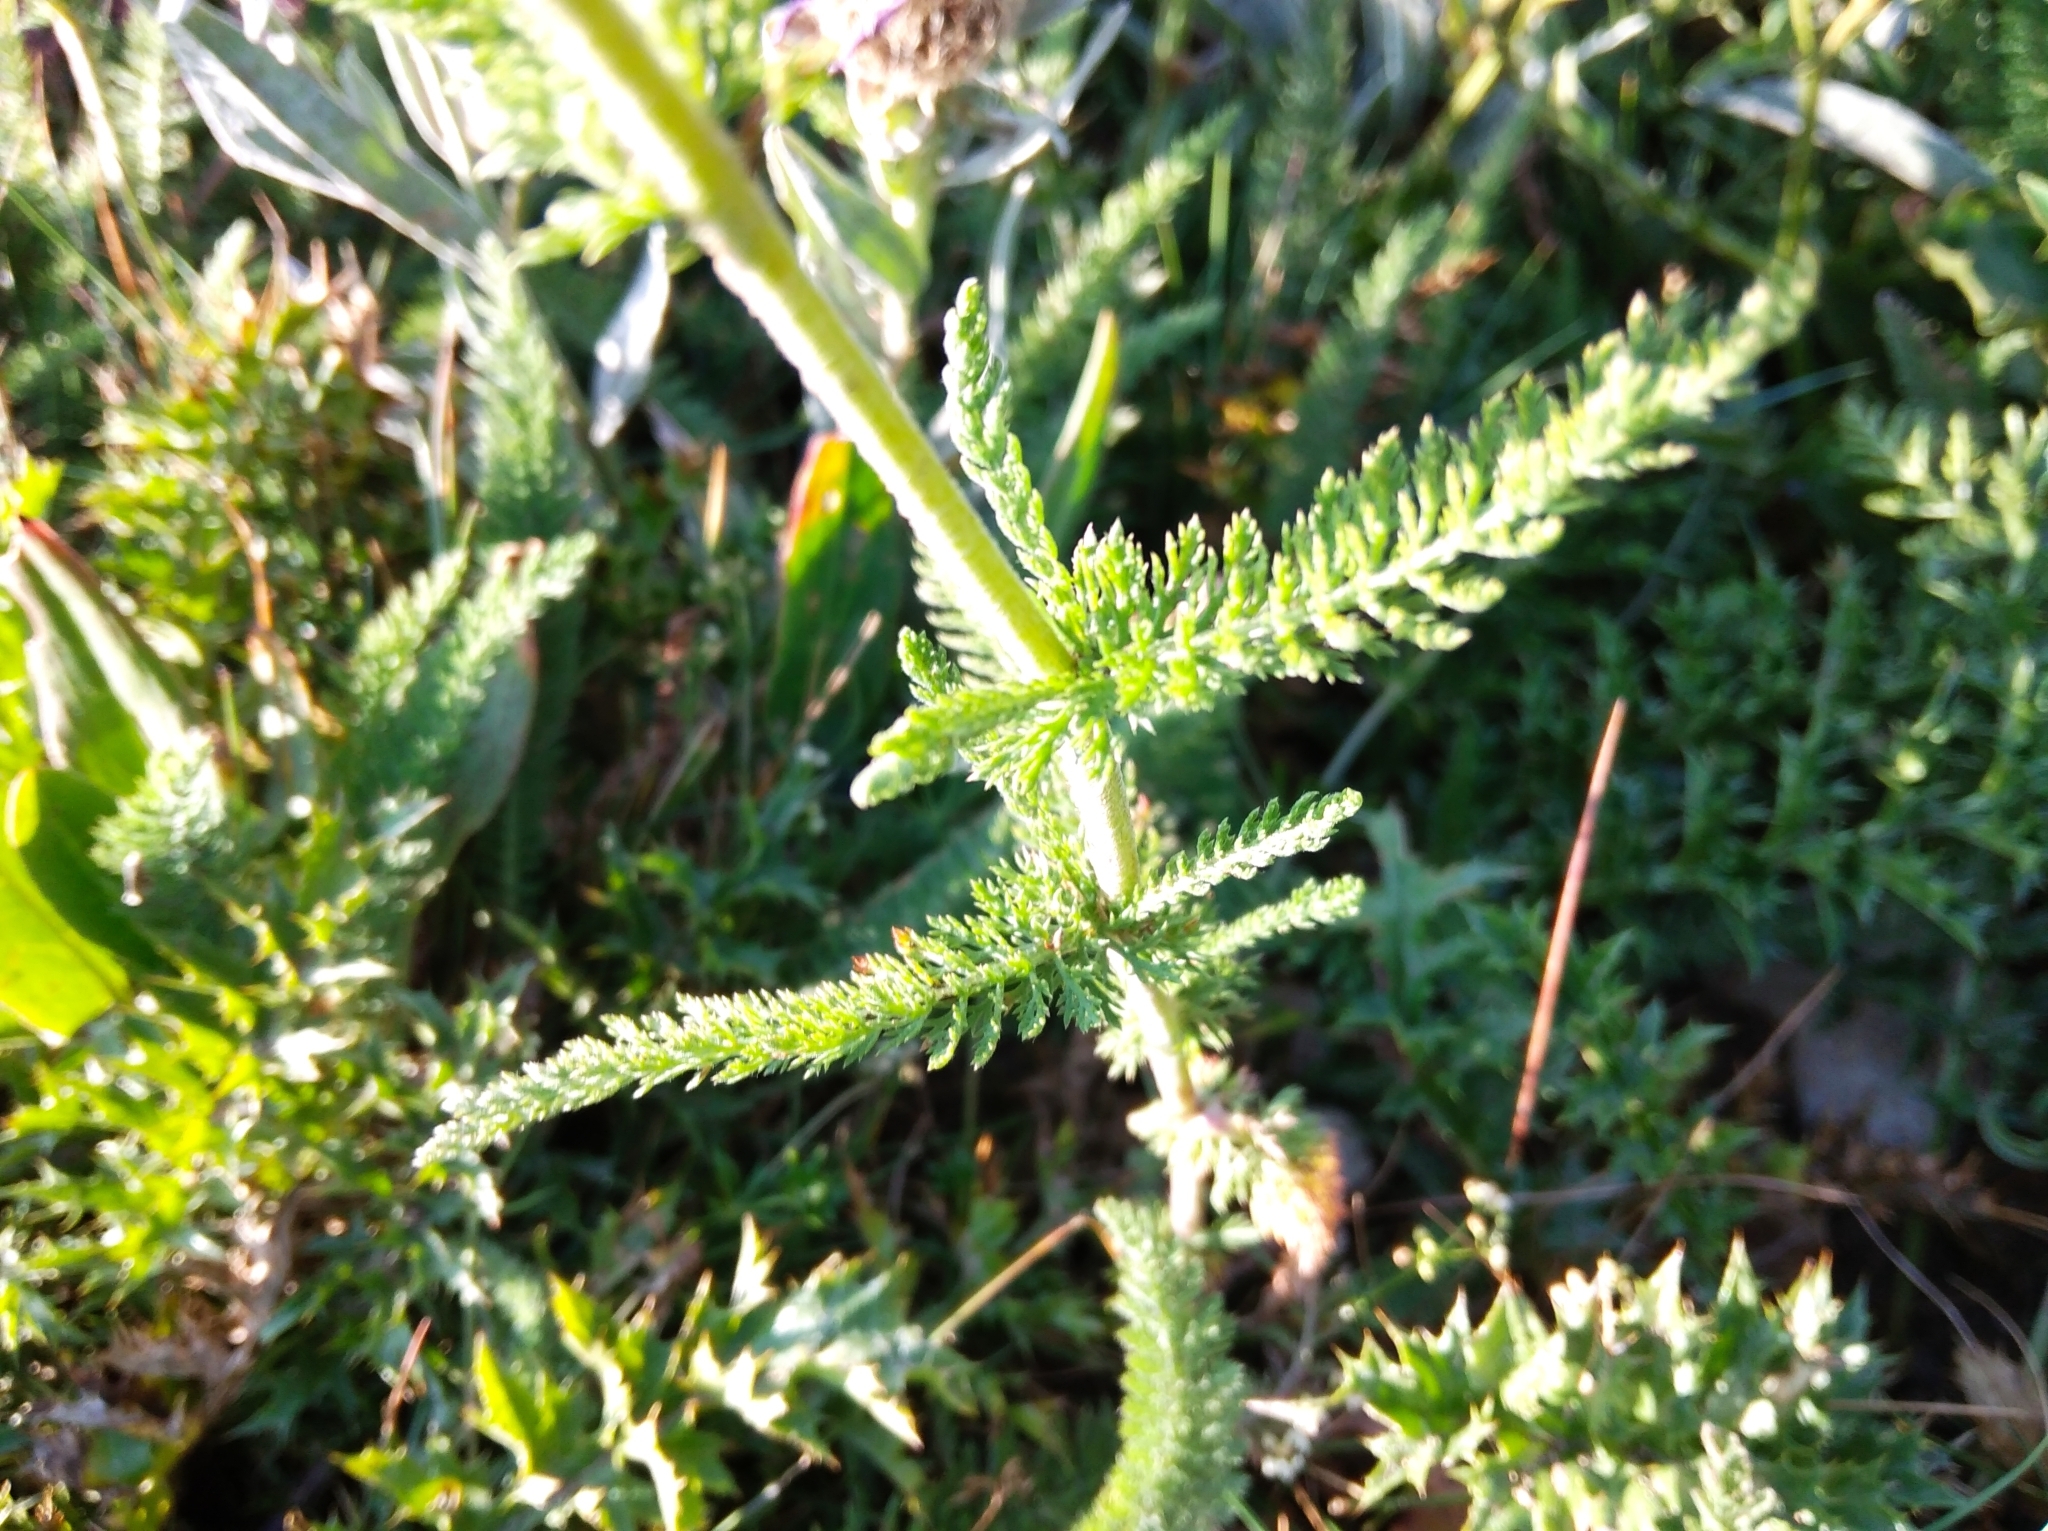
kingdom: Plantae
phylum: Tracheophyta
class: Magnoliopsida
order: Asterales
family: Asteraceae
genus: Achillea
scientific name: Achillea millefolium
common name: Yarrow
